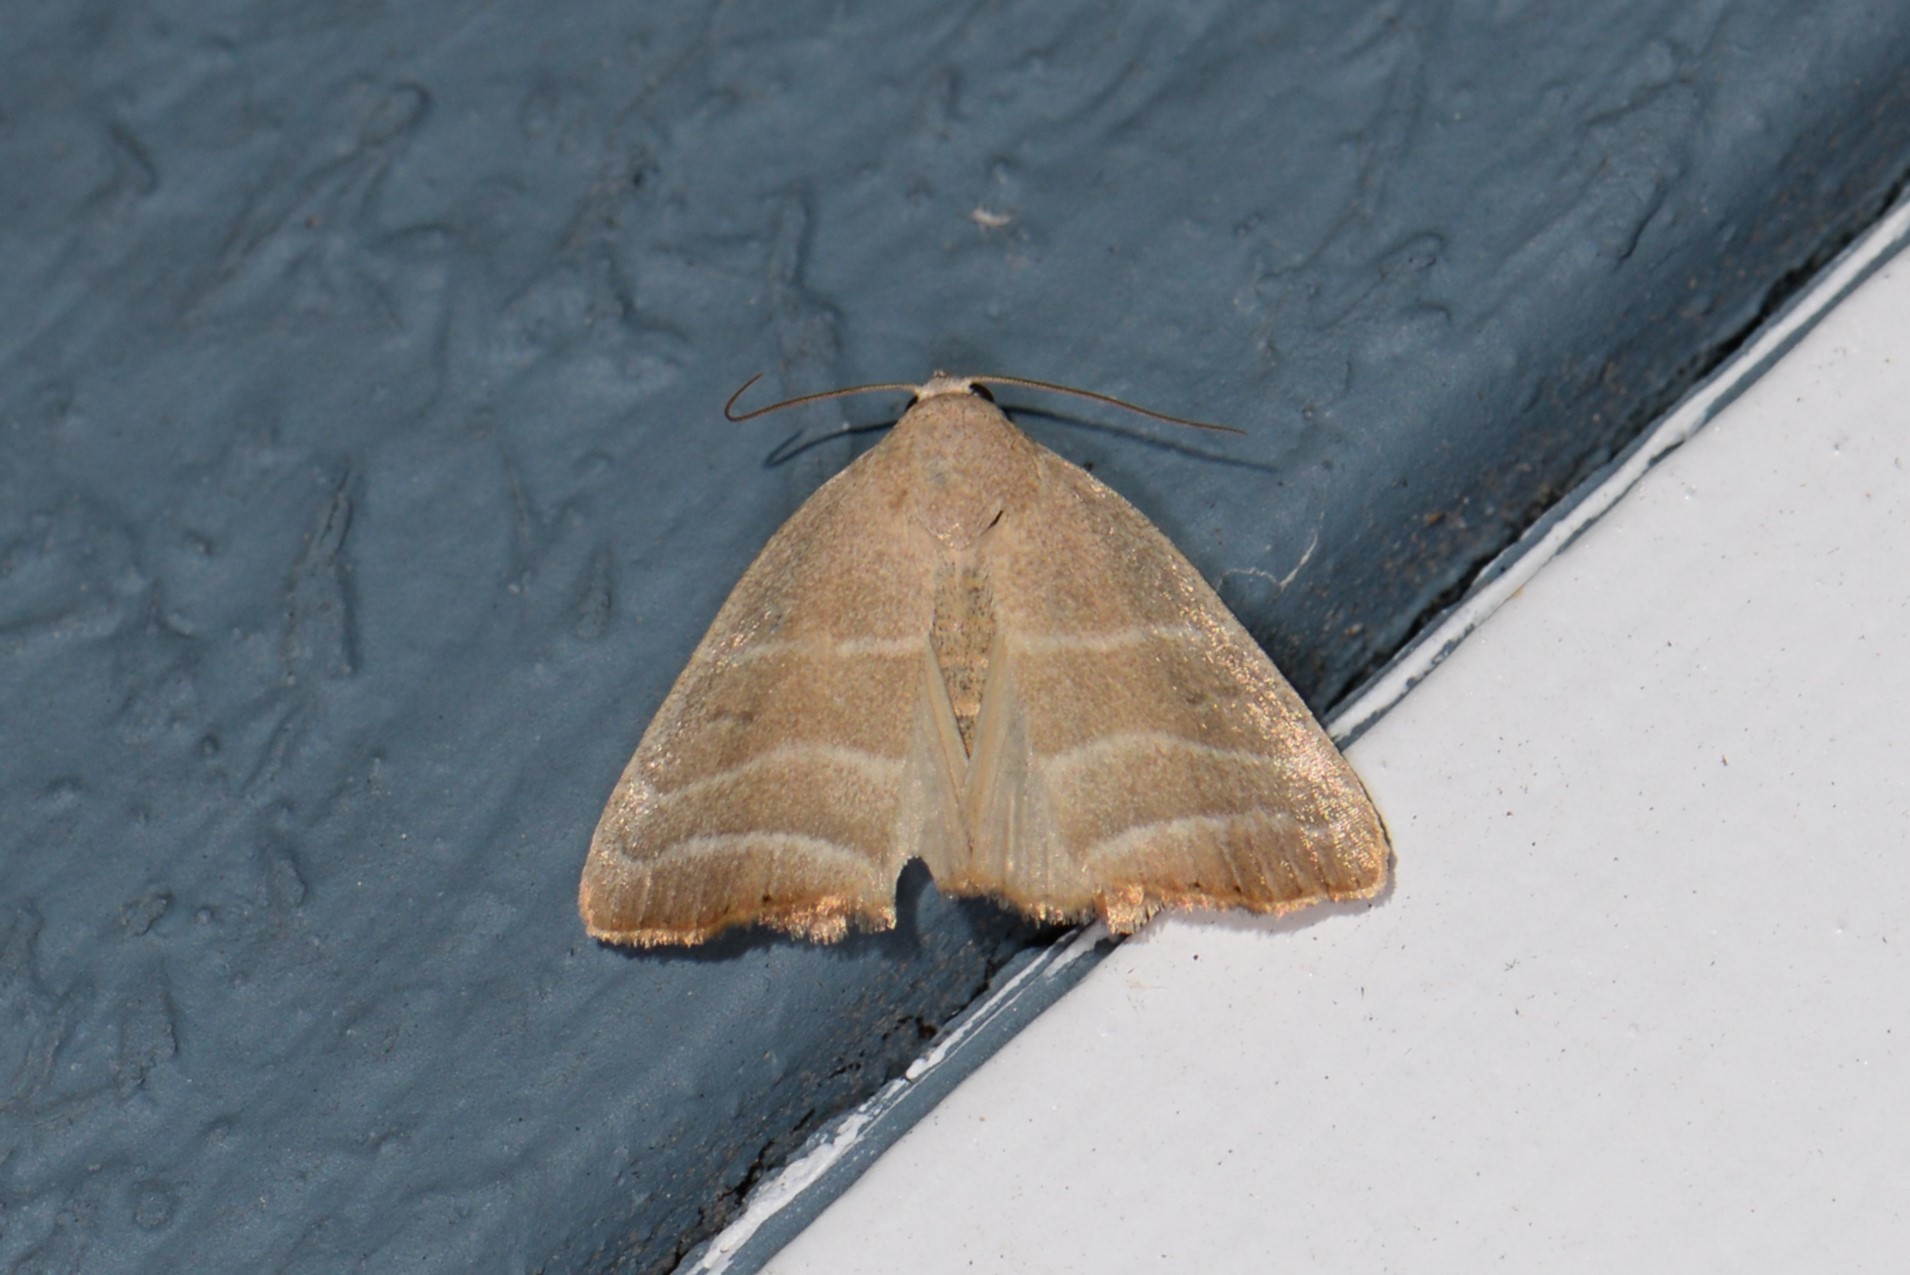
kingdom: Animalia
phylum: Arthropoda
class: Insecta
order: Lepidoptera
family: Noctuidae
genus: Bagisara
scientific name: Bagisara rectifascia
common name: Straight lined mallow moth
